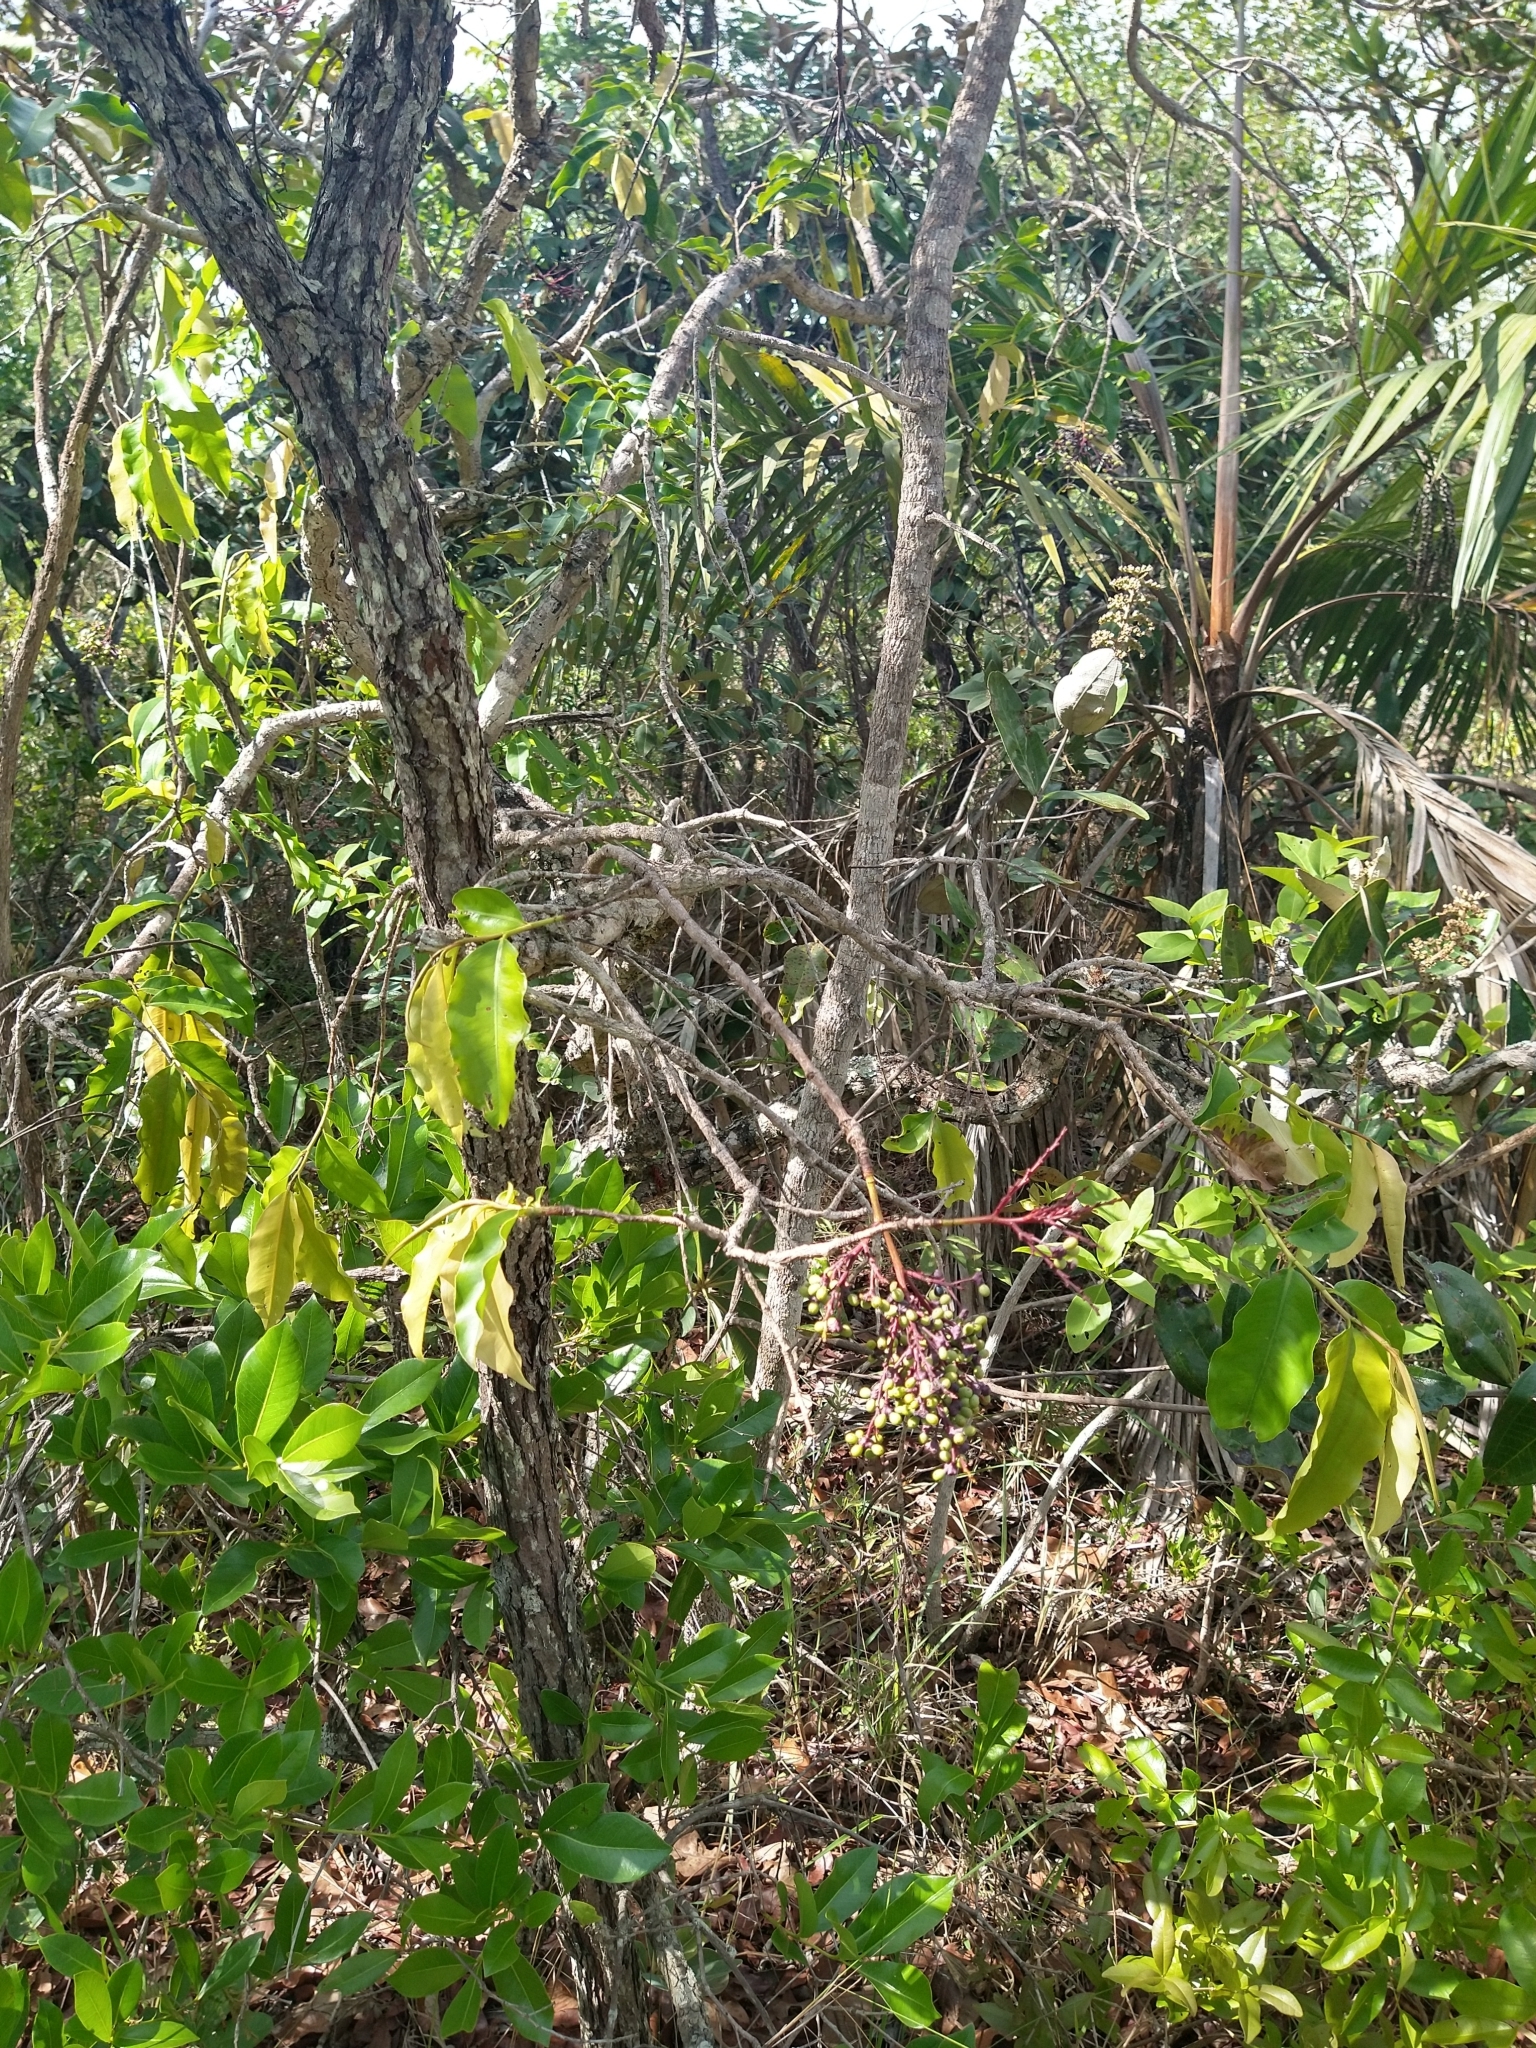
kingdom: Plantae
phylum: Tracheophyta
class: Magnoliopsida
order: Malpighiales
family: Ochnaceae
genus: Ouratea
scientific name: Ouratea hexasperma
